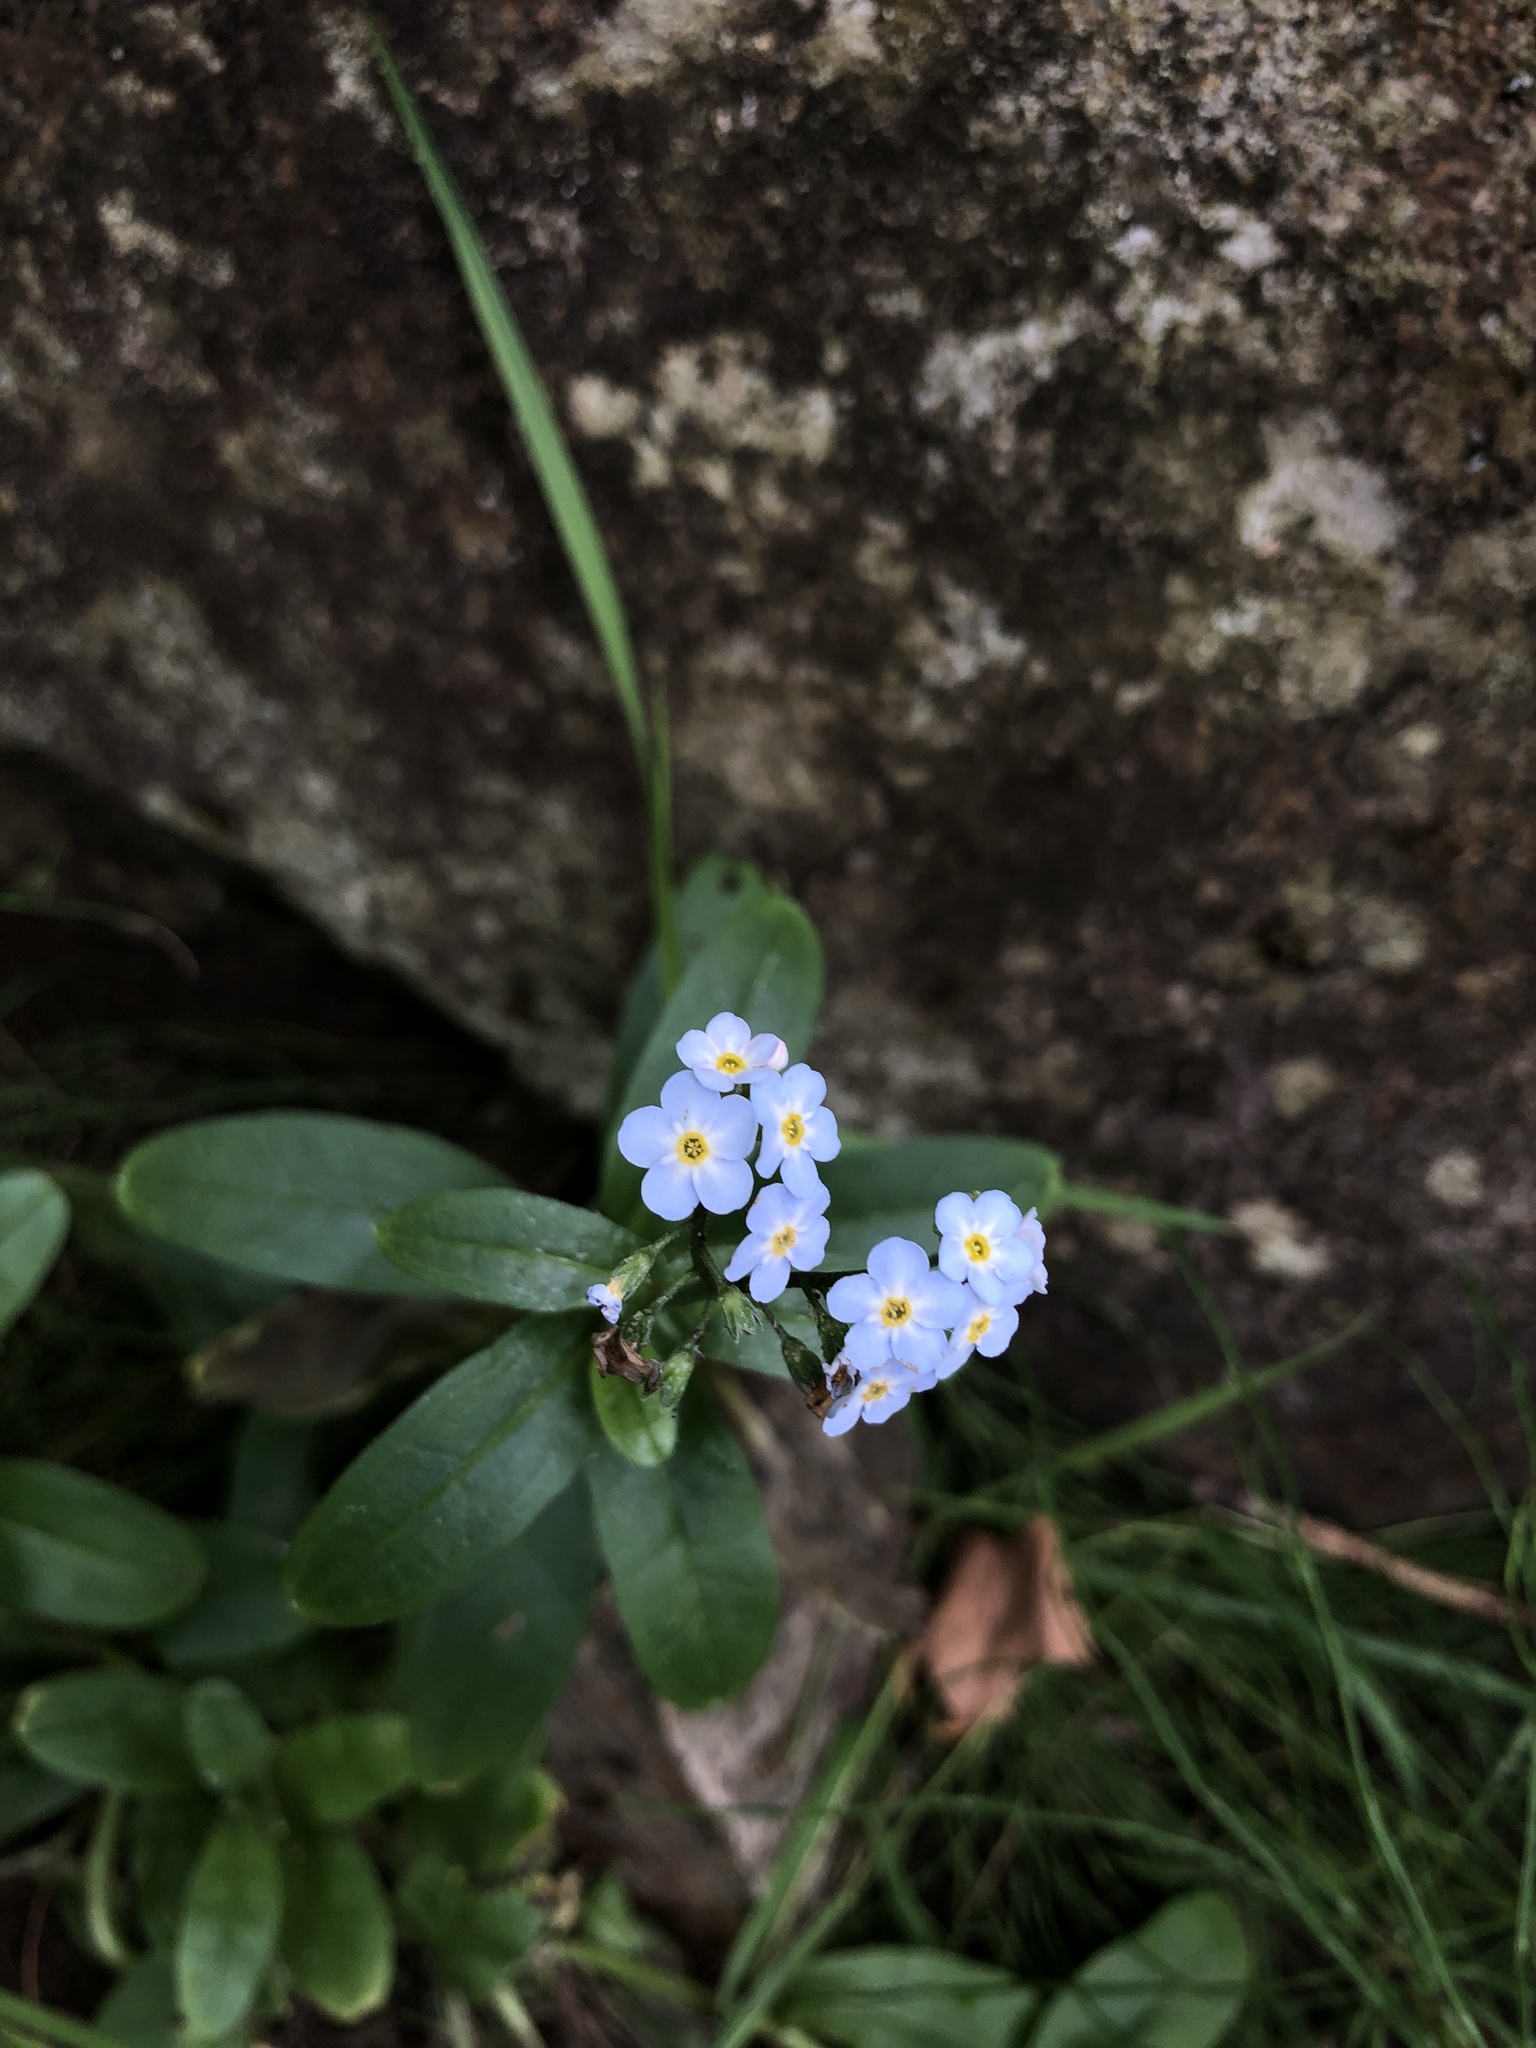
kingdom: Plantae
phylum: Tracheophyta
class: Magnoliopsida
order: Boraginales
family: Boraginaceae
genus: Myosotis
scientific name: Myosotis scorpioides
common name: Water forget-me-not
